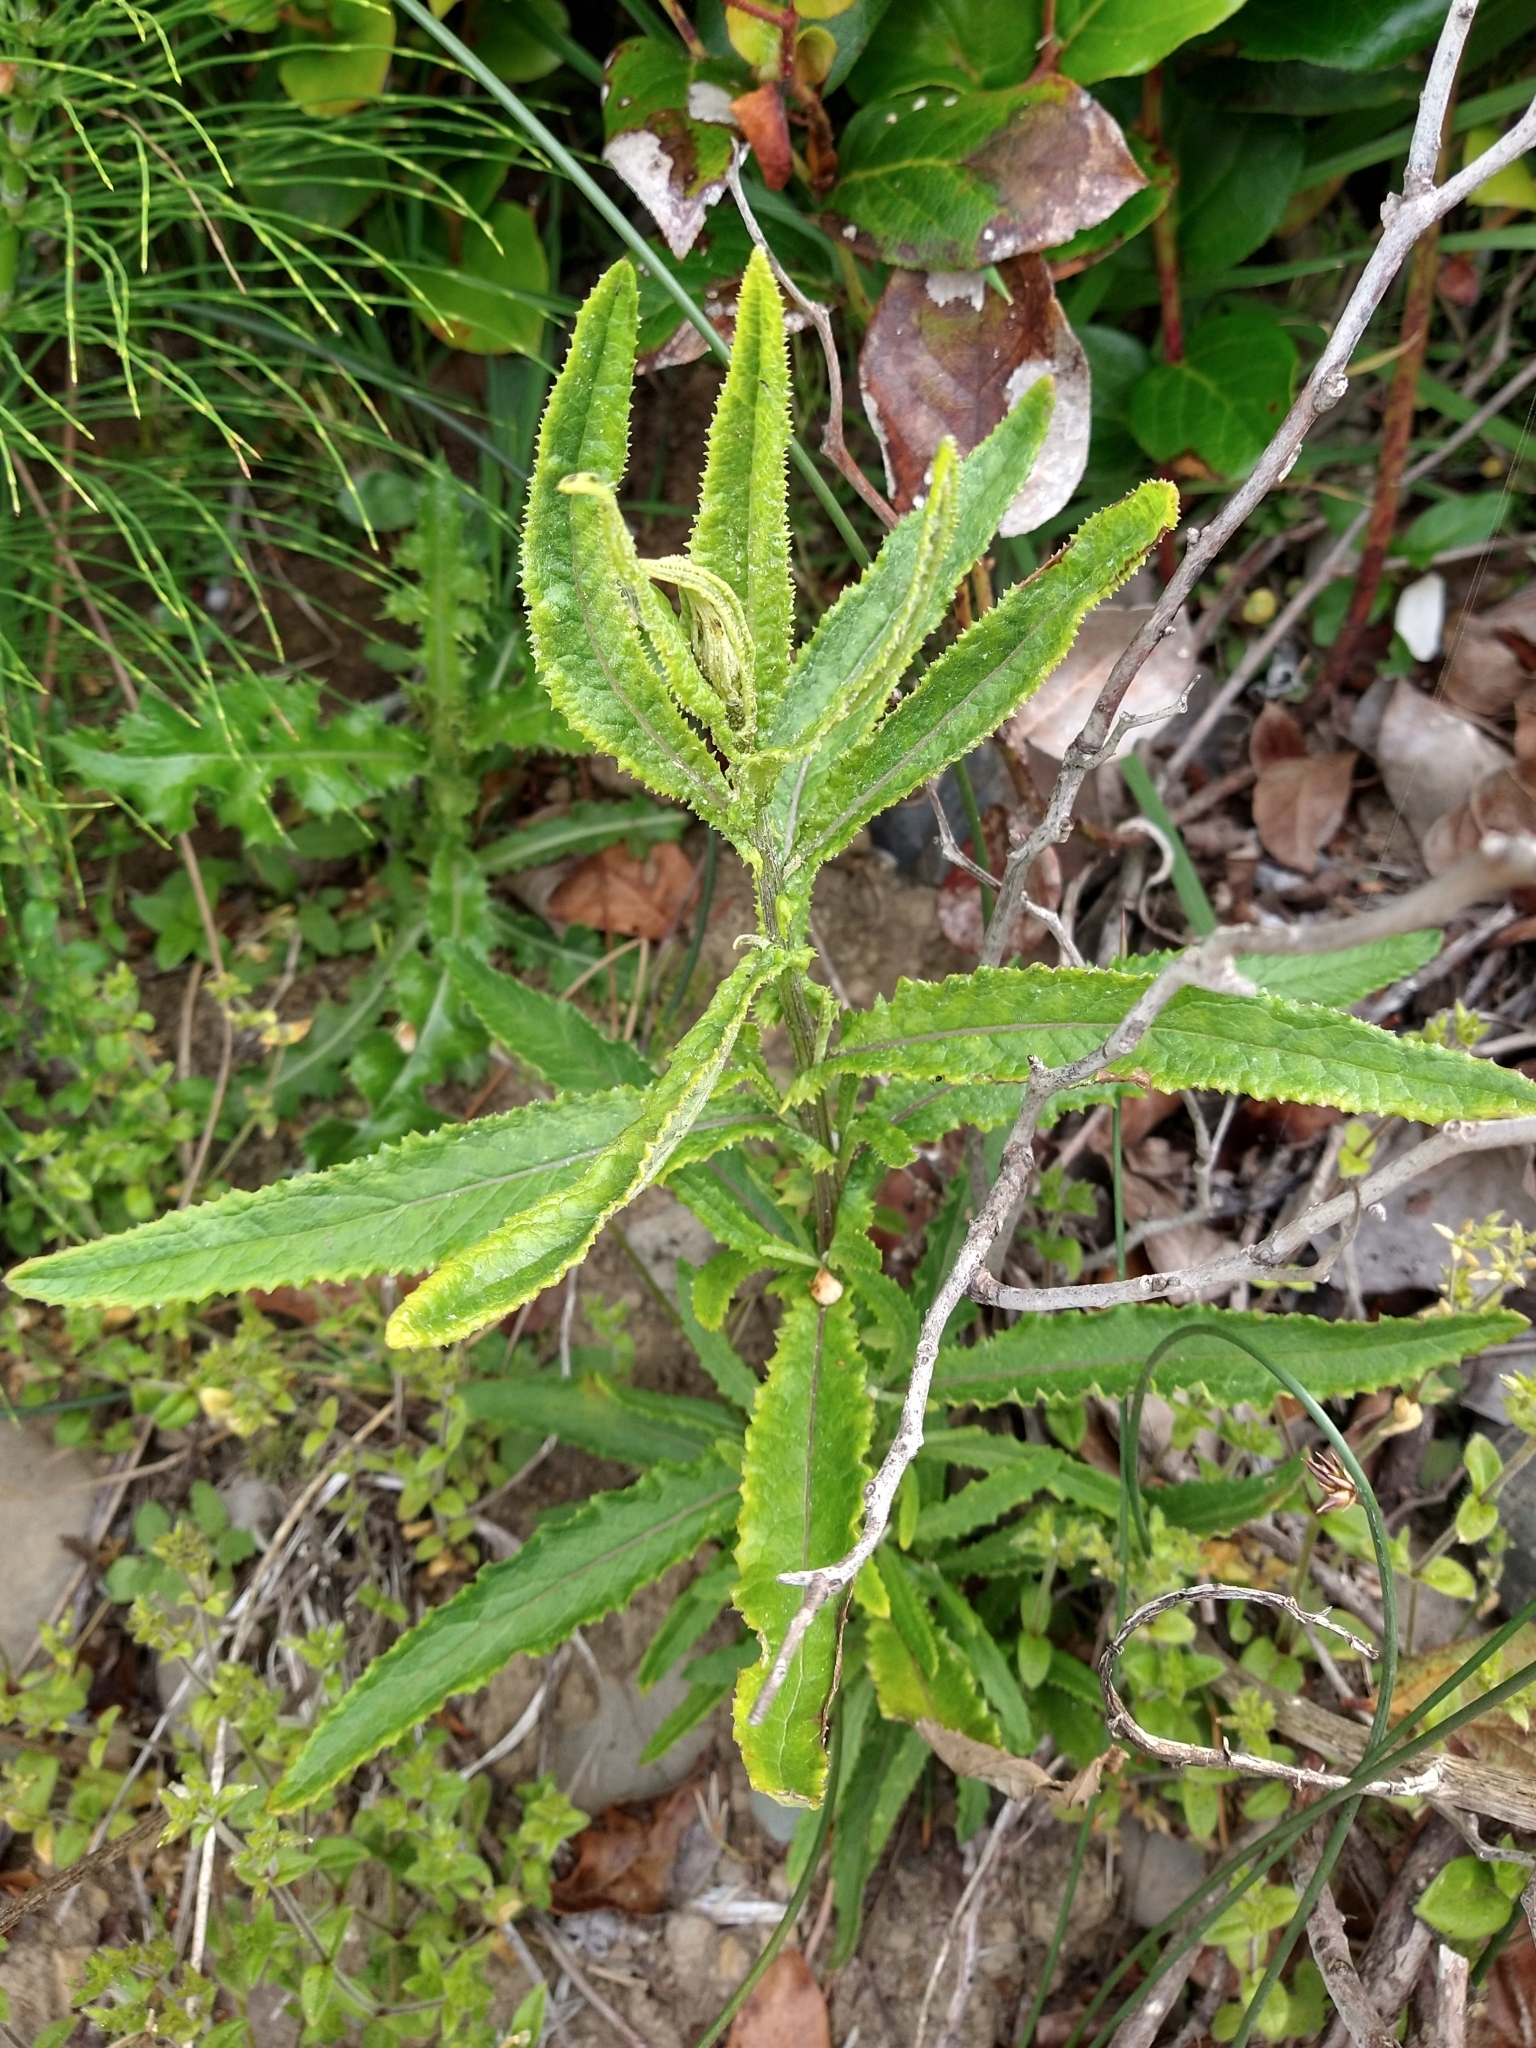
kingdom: Plantae
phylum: Tracheophyta
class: Magnoliopsida
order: Asterales
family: Asteraceae
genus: Senecio
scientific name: Senecio minimus
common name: Toothed fireweed
